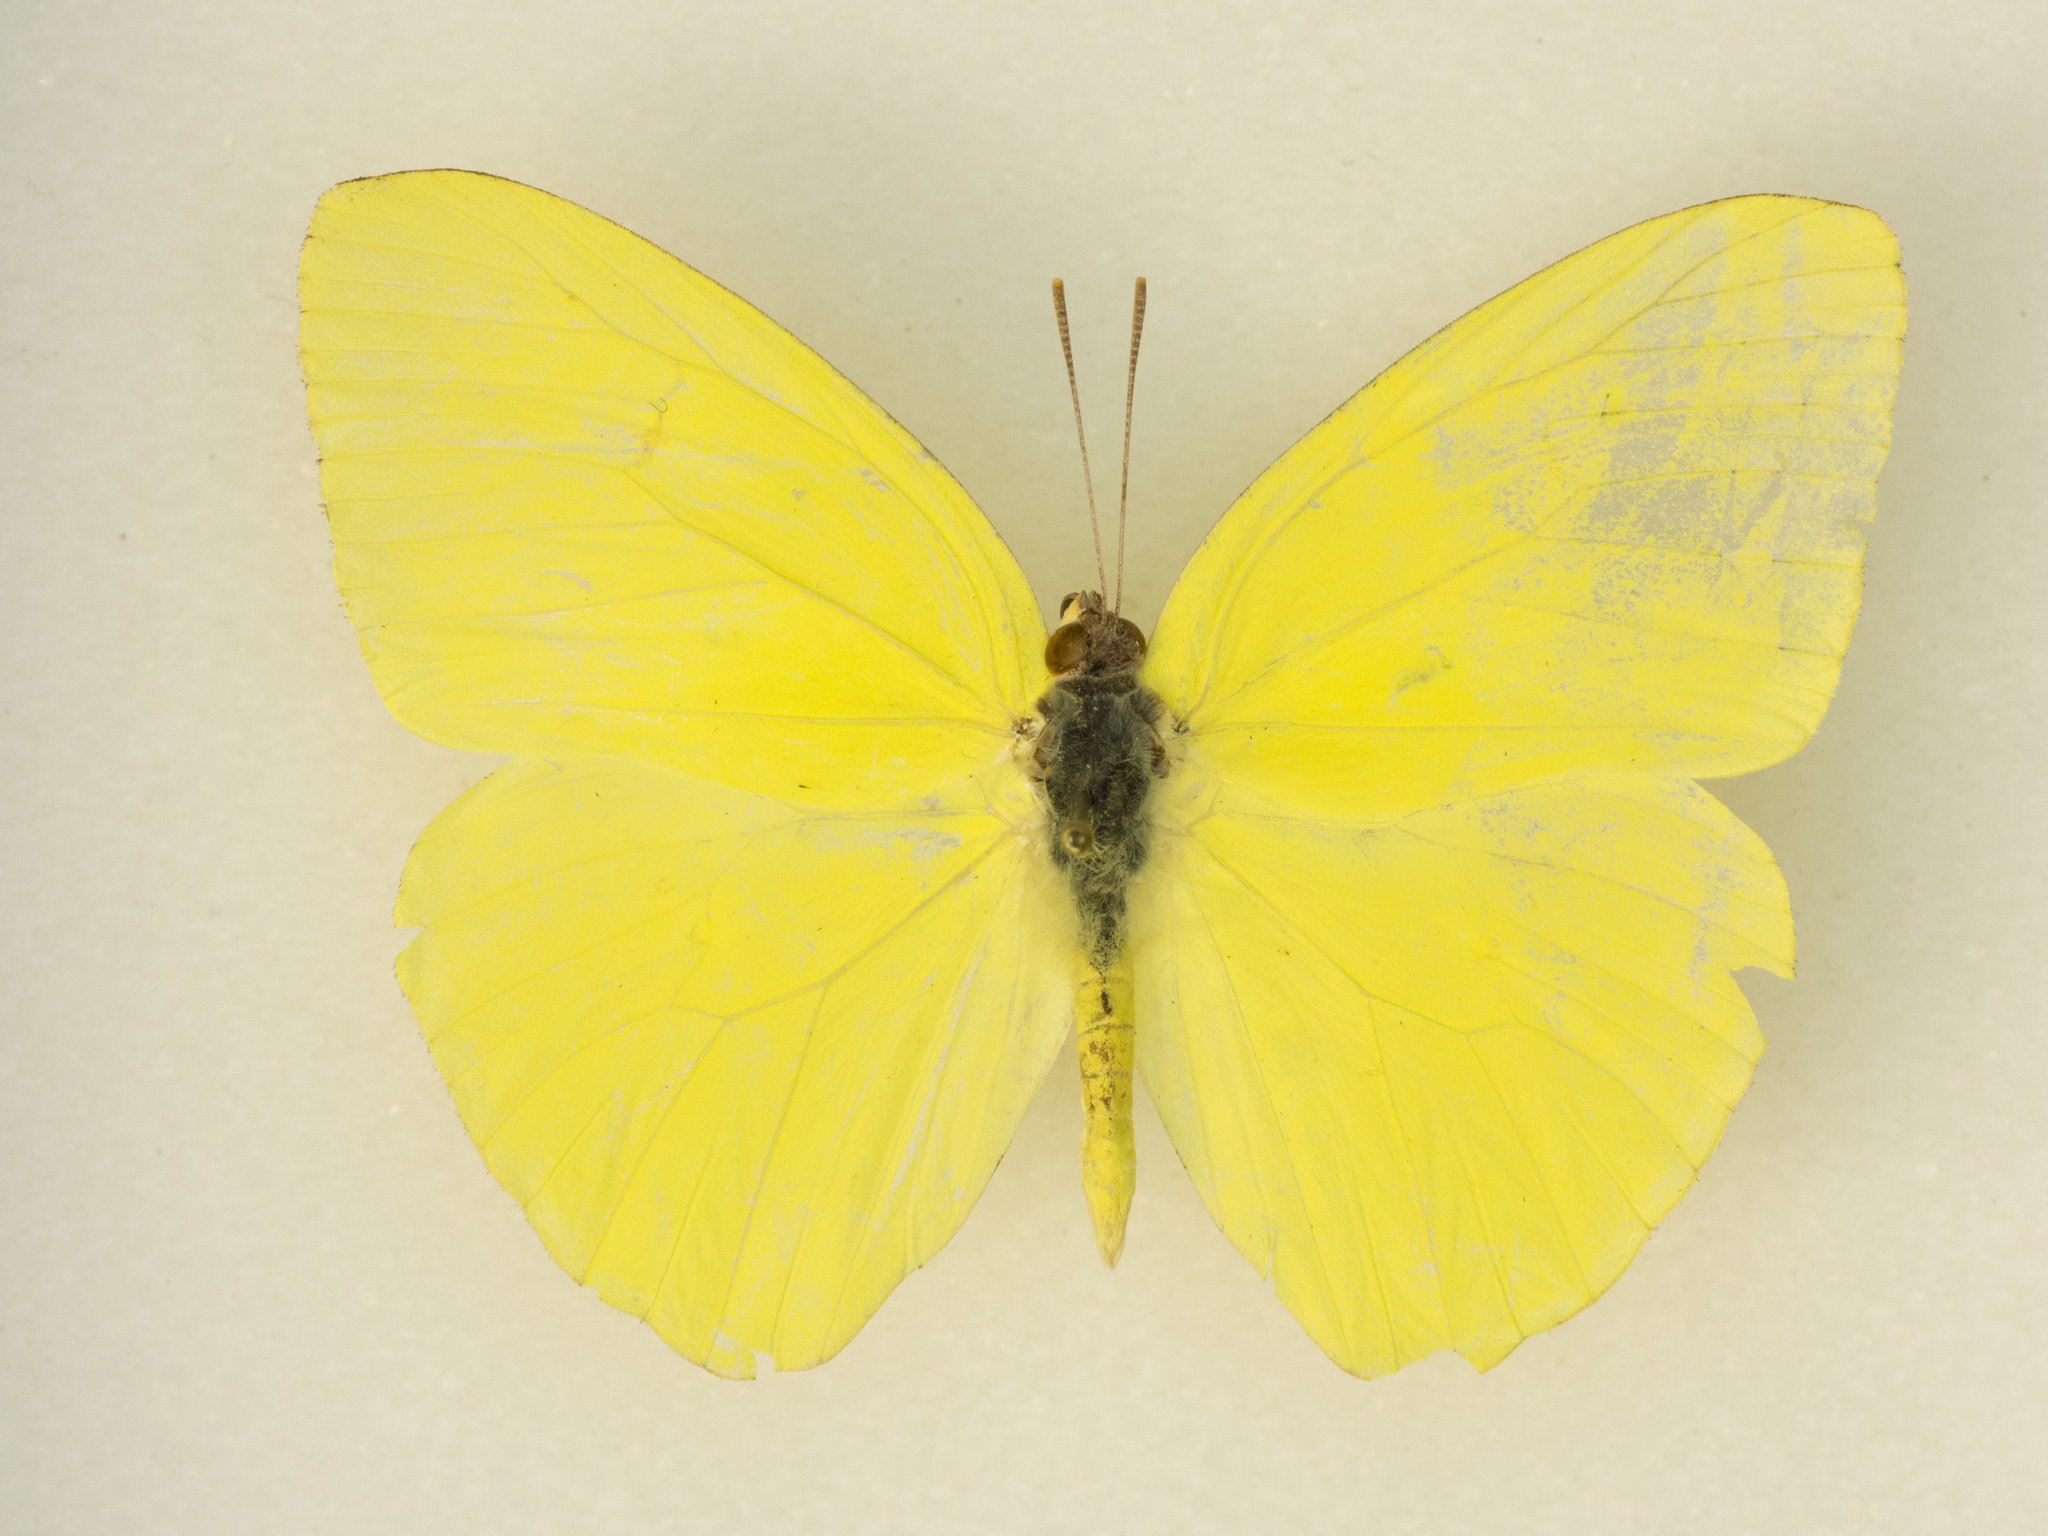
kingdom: Animalia
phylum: Arthropoda
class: Insecta
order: Lepidoptera
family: Pieridae
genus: Phoebis
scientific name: Phoebis marcellina
